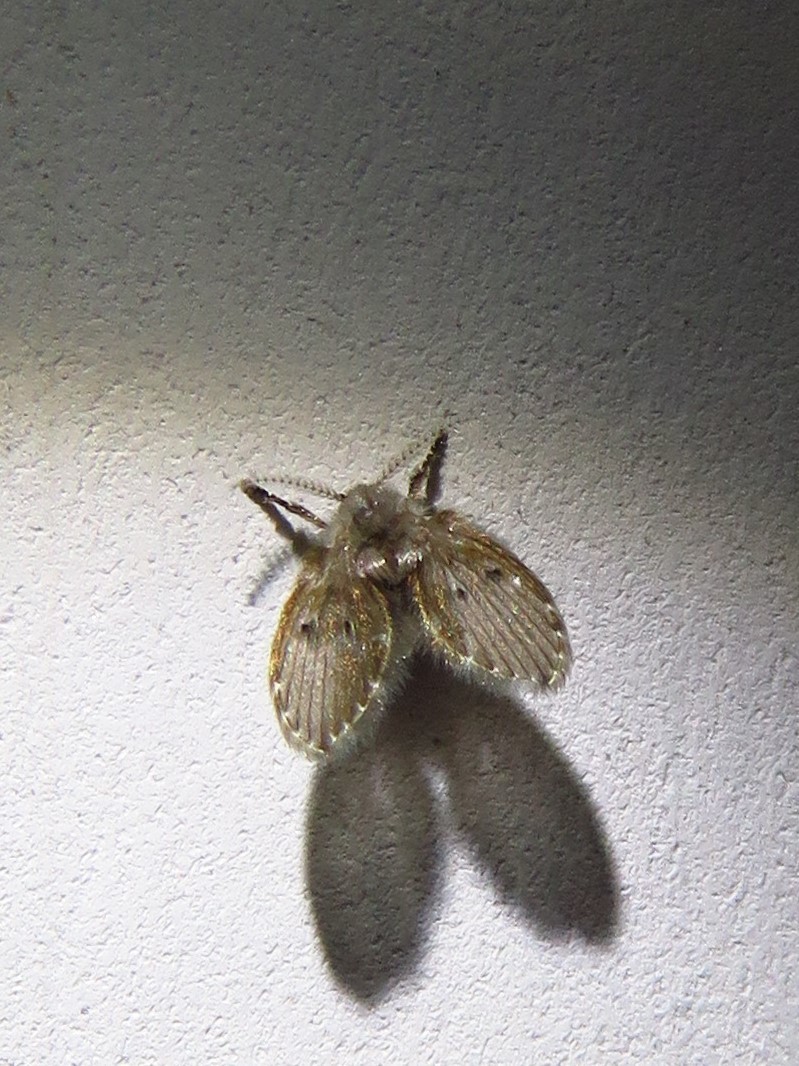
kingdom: Animalia
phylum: Arthropoda
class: Insecta
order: Diptera
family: Psychodidae
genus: Clogmia
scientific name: Clogmia albipunctatus
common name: White-spotted moth fly
